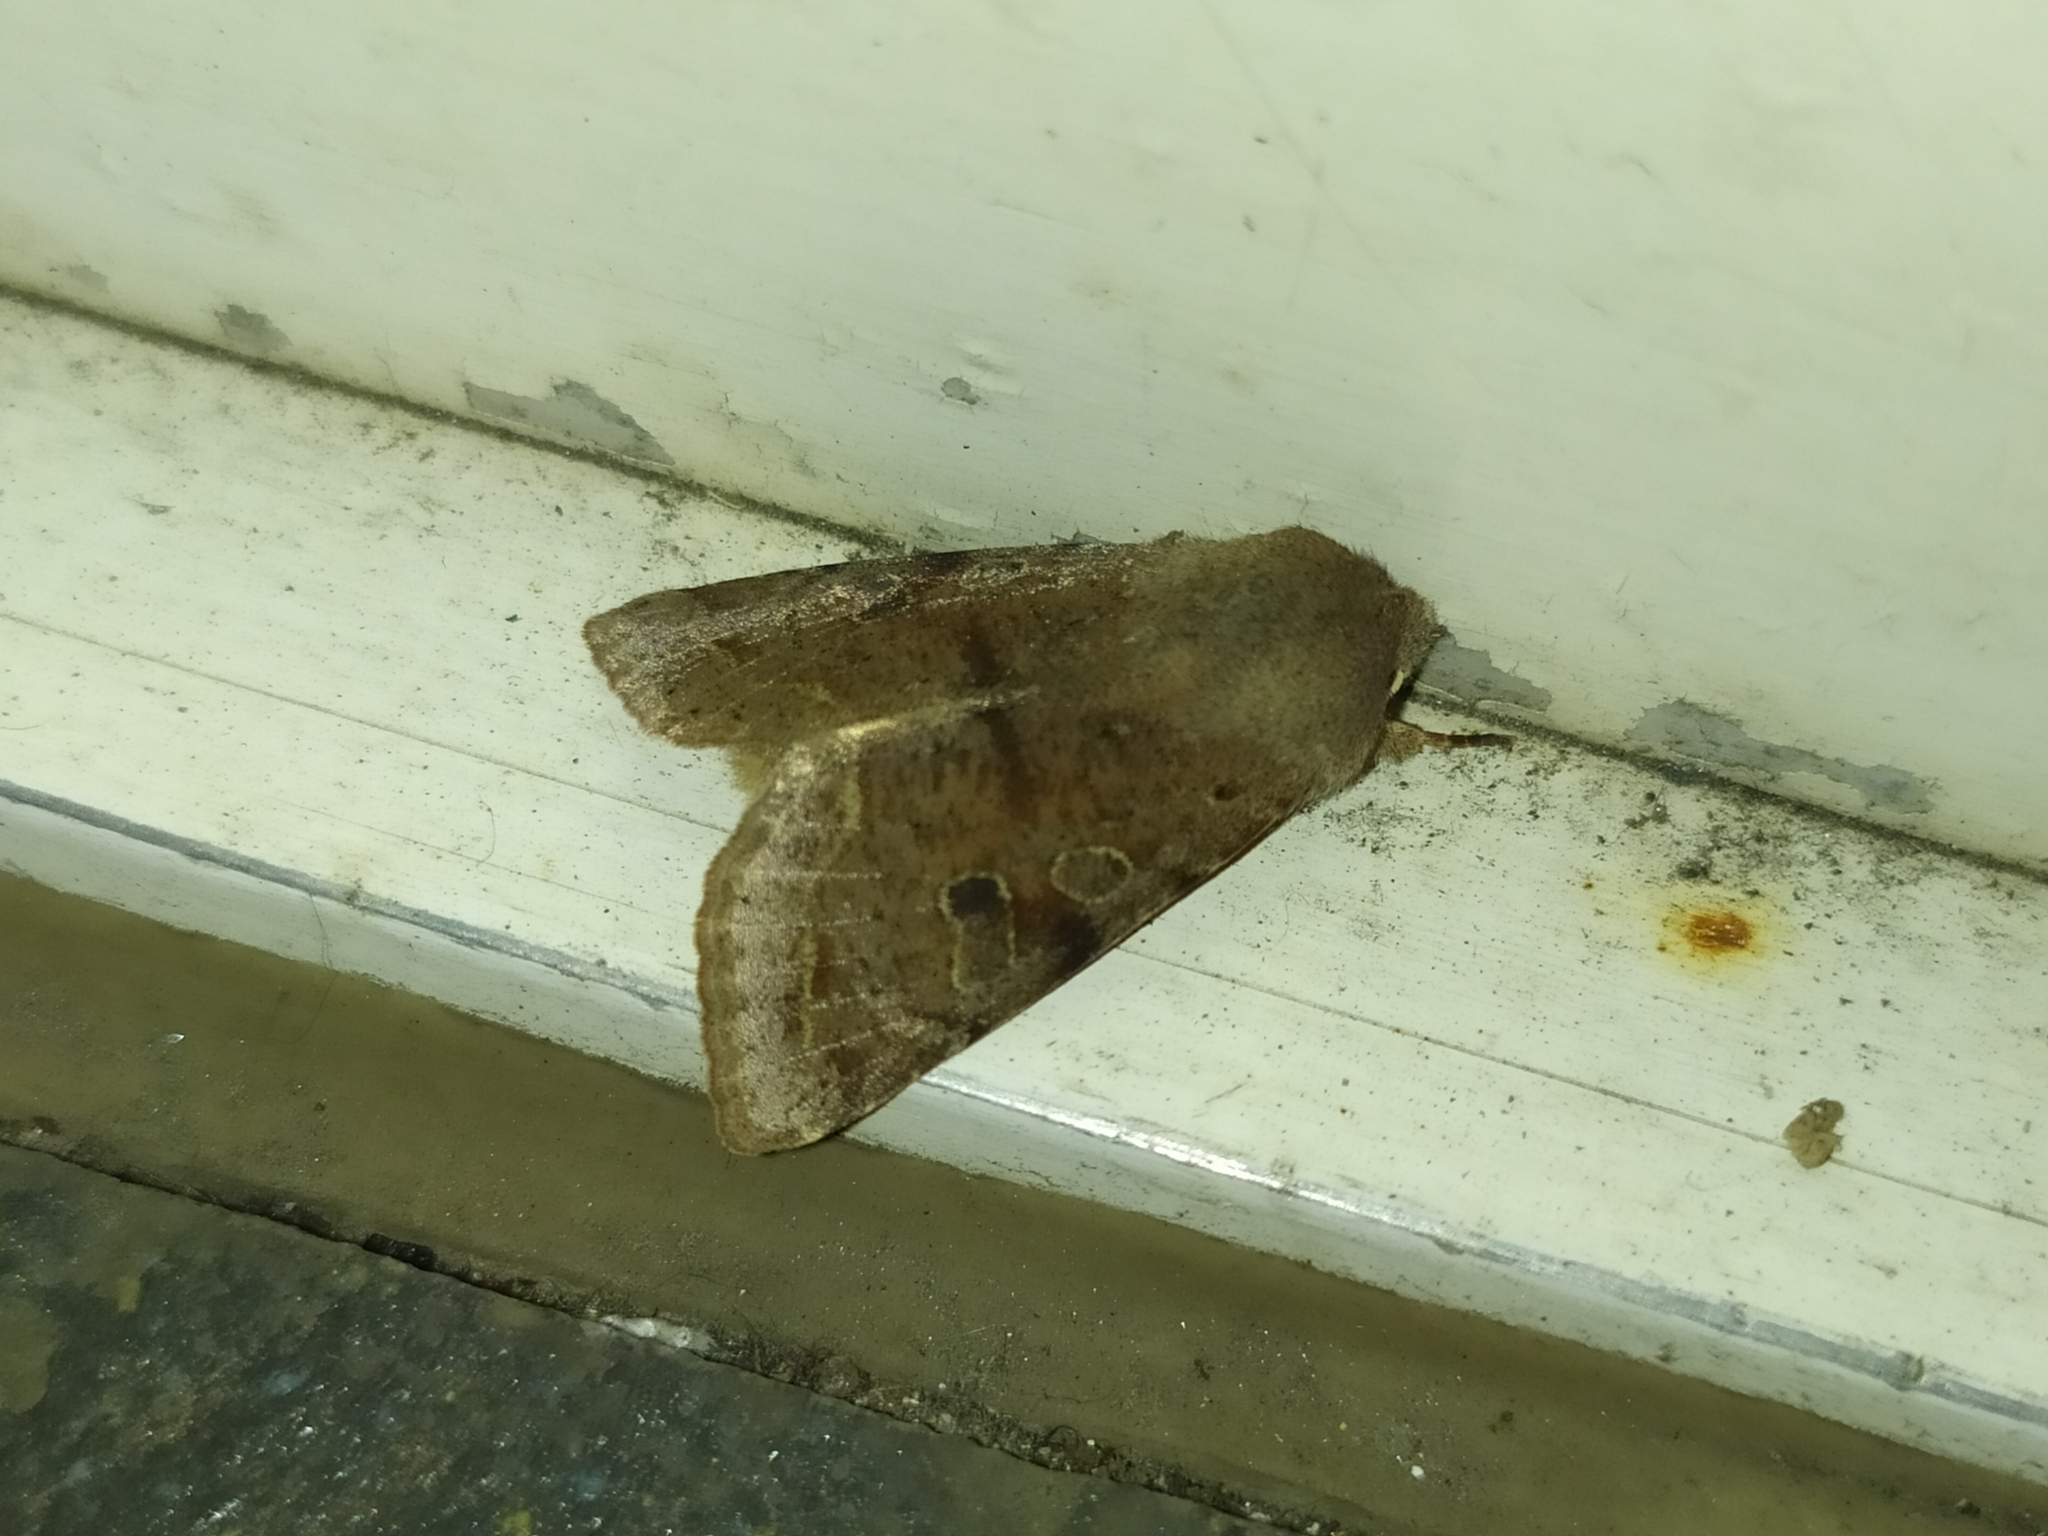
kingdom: Animalia
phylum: Arthropoda
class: Insecta
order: Lepidoptera
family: Noctuidae
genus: Orthosia
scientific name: Orthosia incerta
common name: Clouded drab
